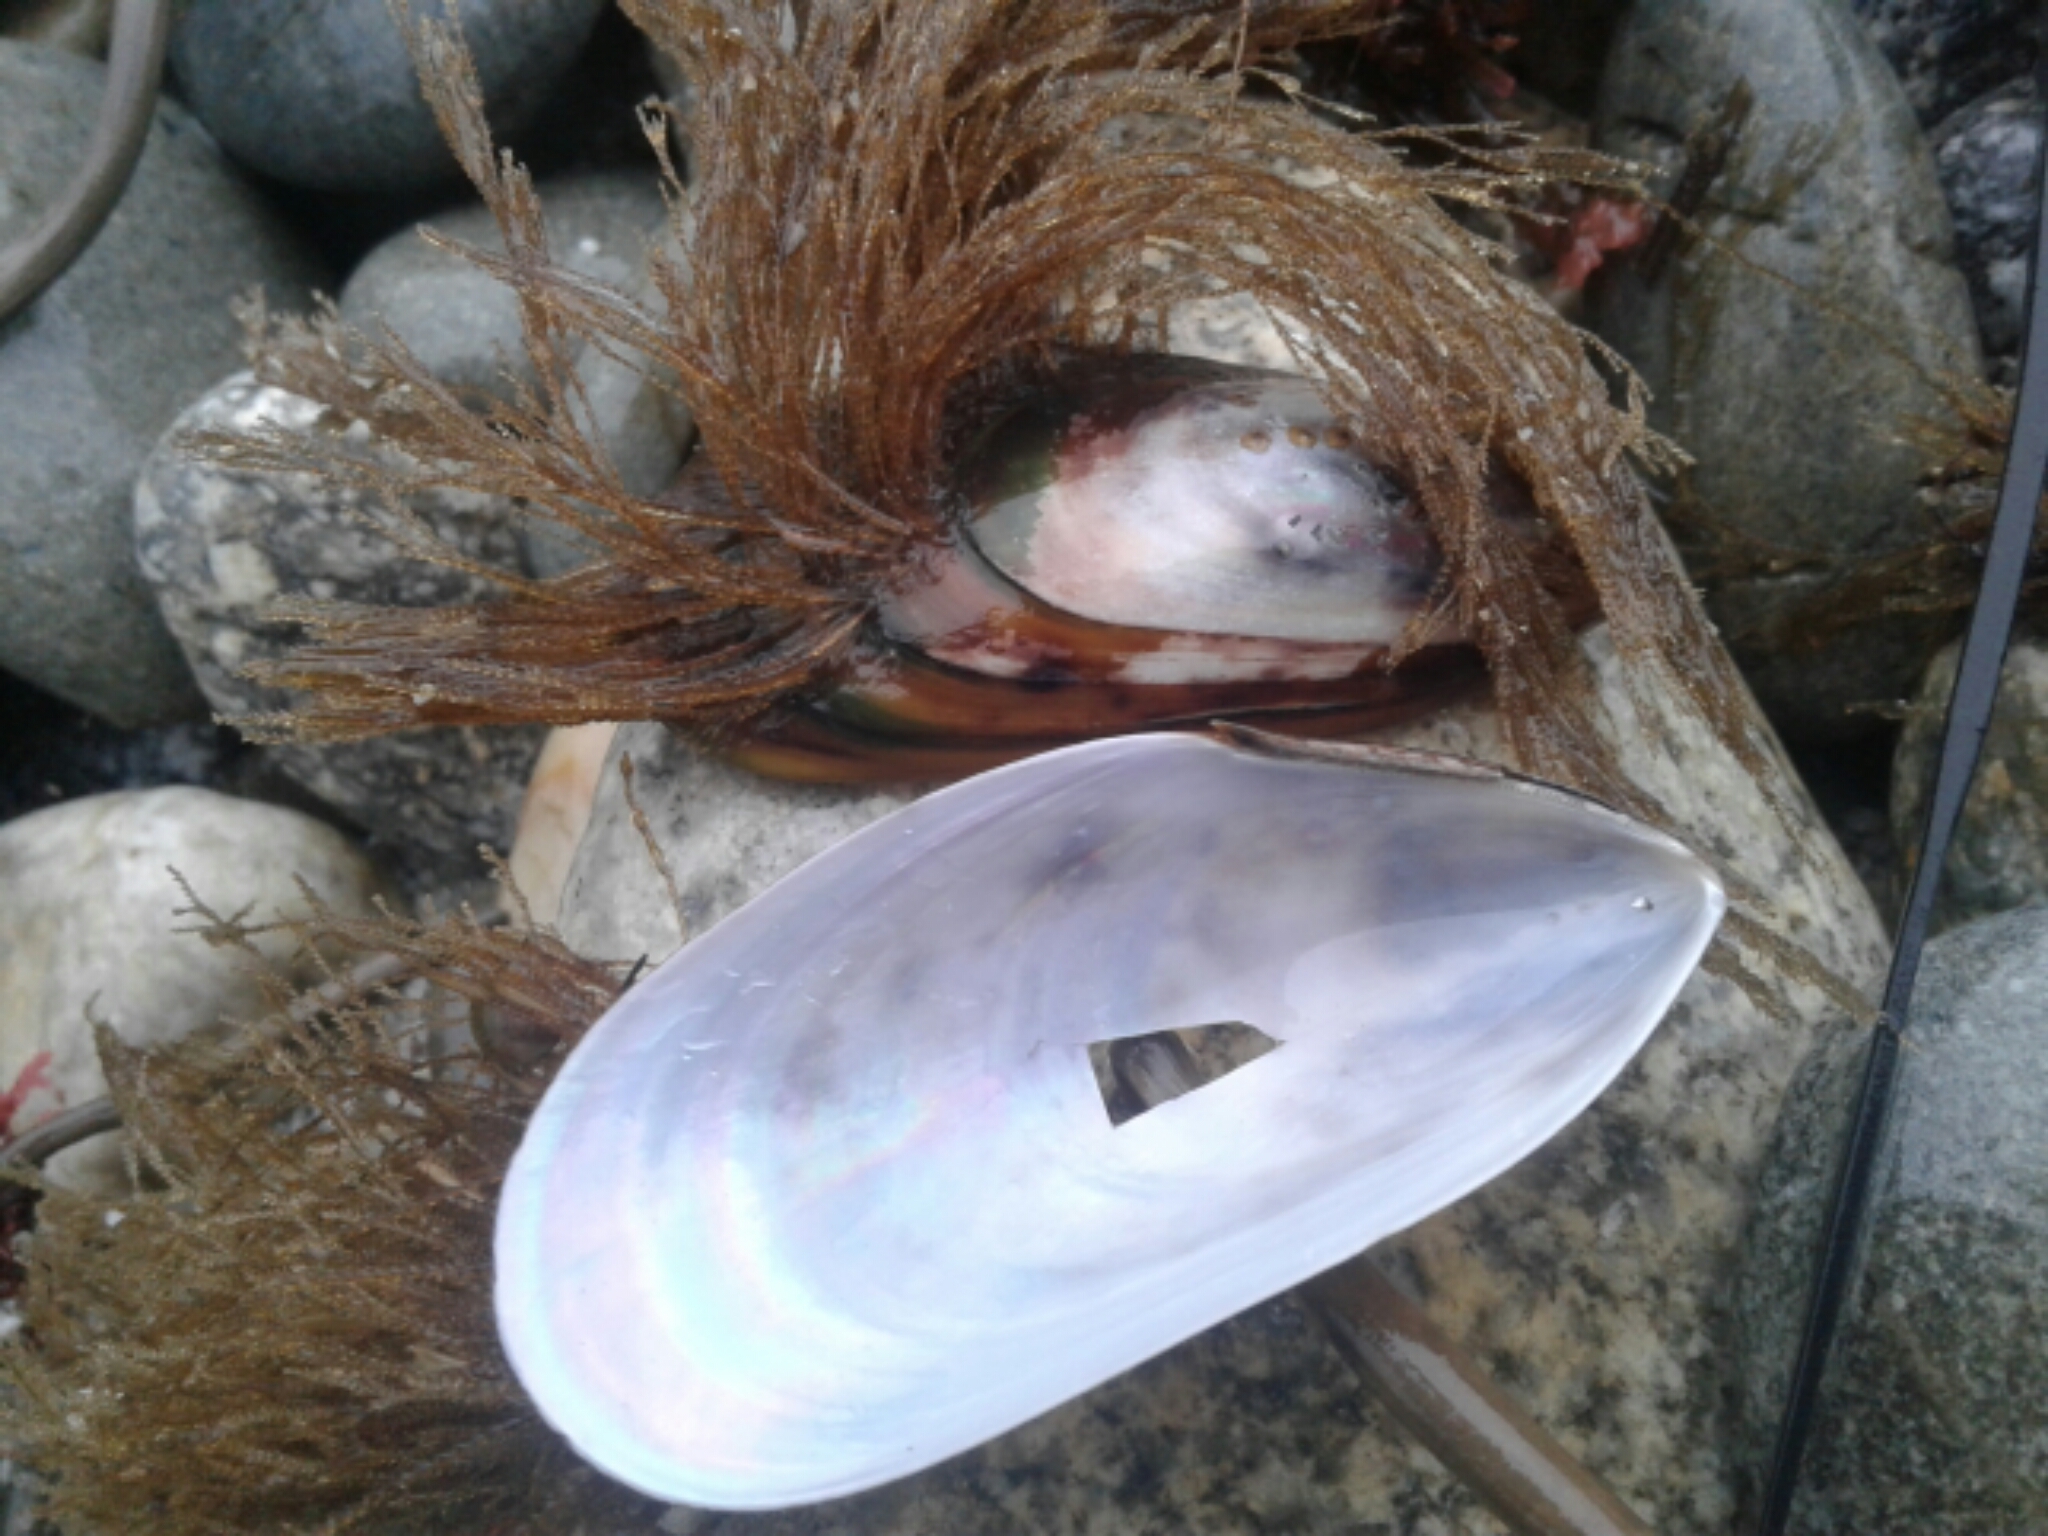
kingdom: Animalia
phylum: Mollusca
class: Bivalvia
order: Mytilida
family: Mytilidae
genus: Perna
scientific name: Perna canaliculus
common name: New zealand greenshelltm
